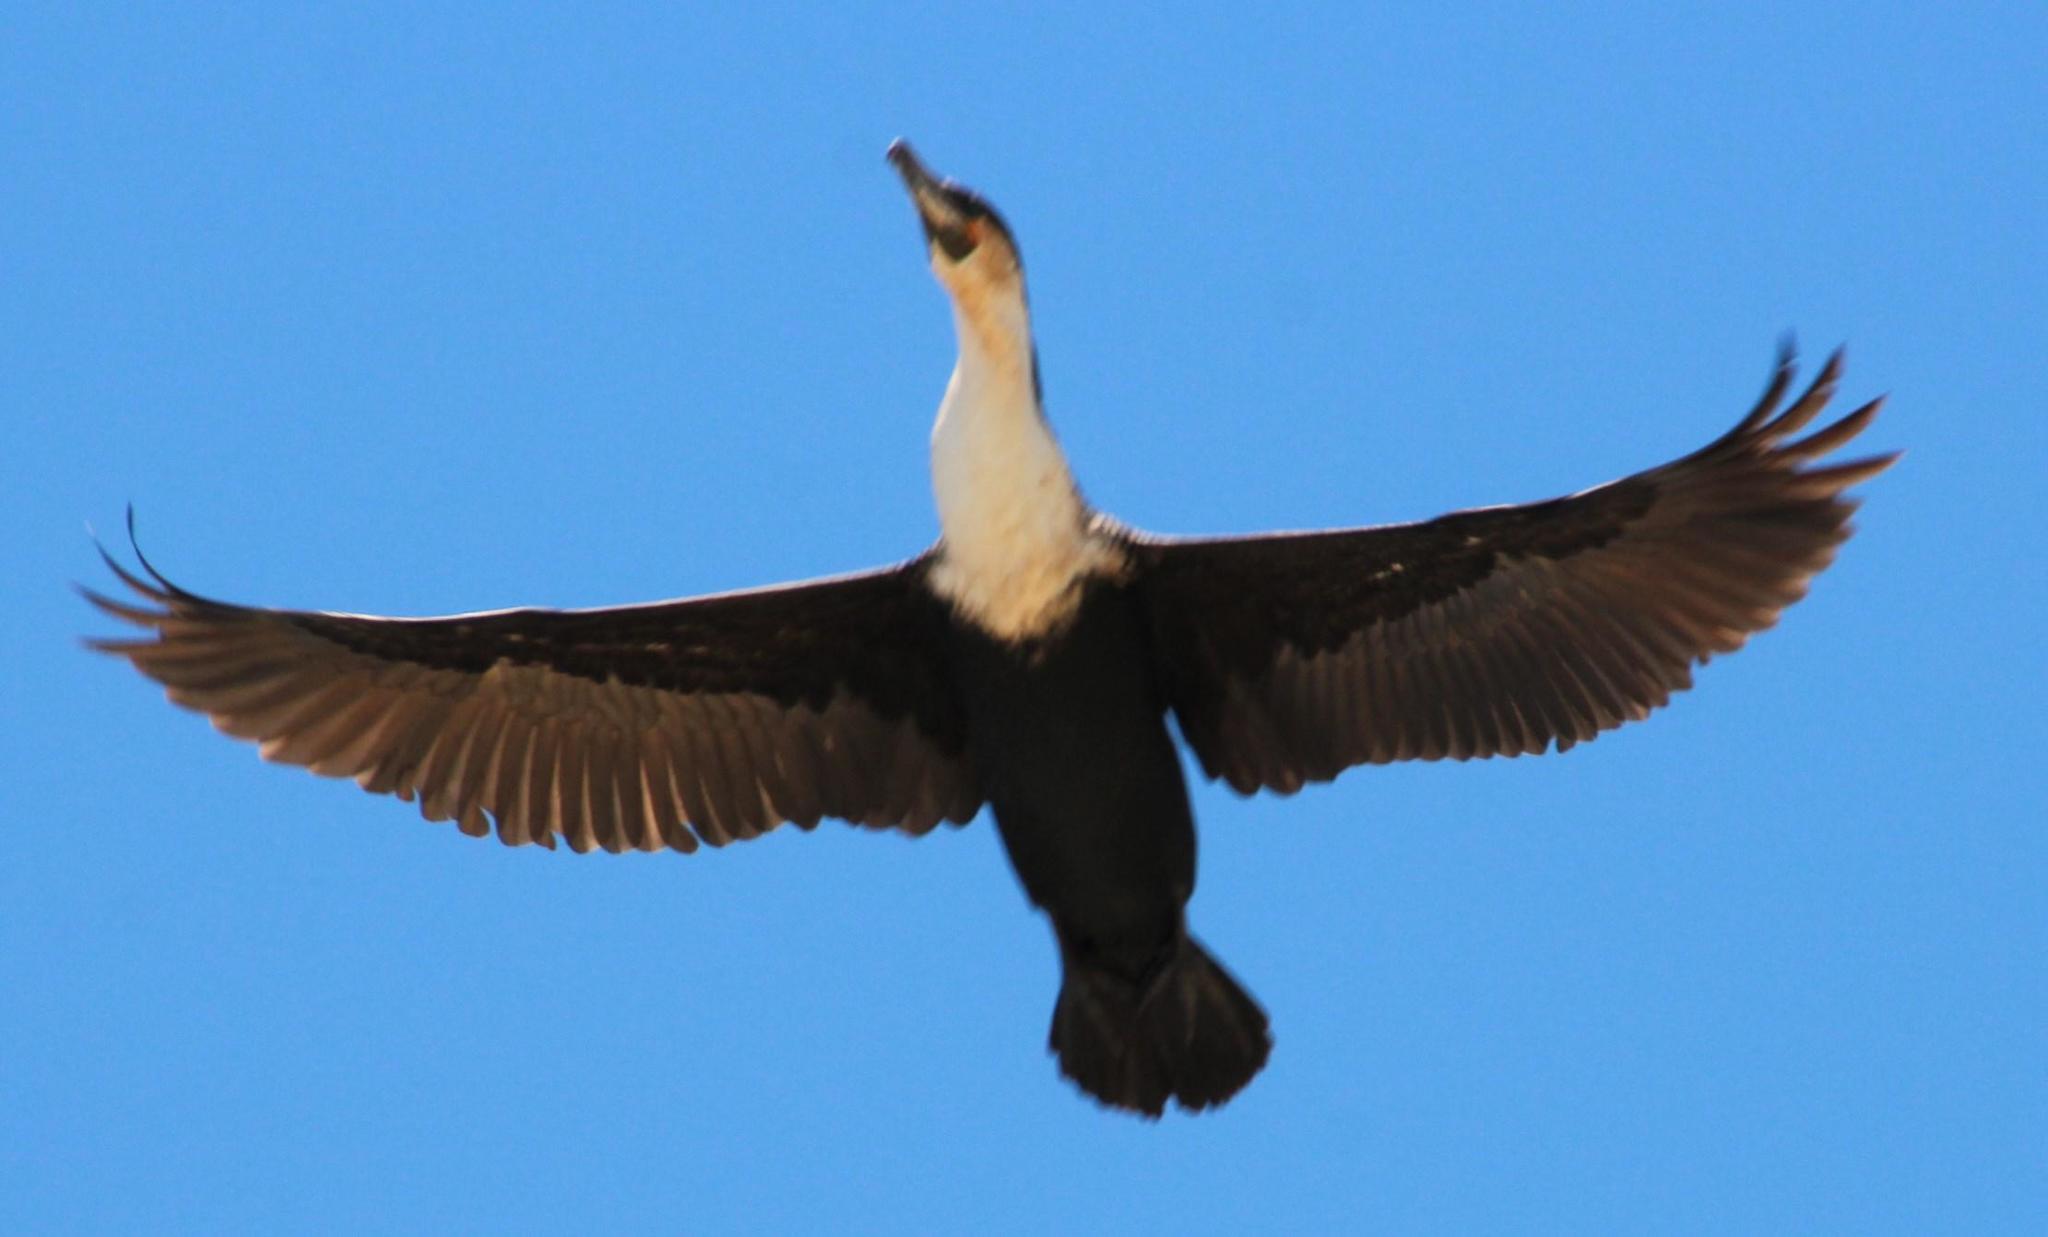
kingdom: Animalia
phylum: Chordata
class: Aves
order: Suliformes
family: Phalacrocoracidae
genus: Phalacrocorax
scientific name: Phalacrocorax carbo
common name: Great cormorant
